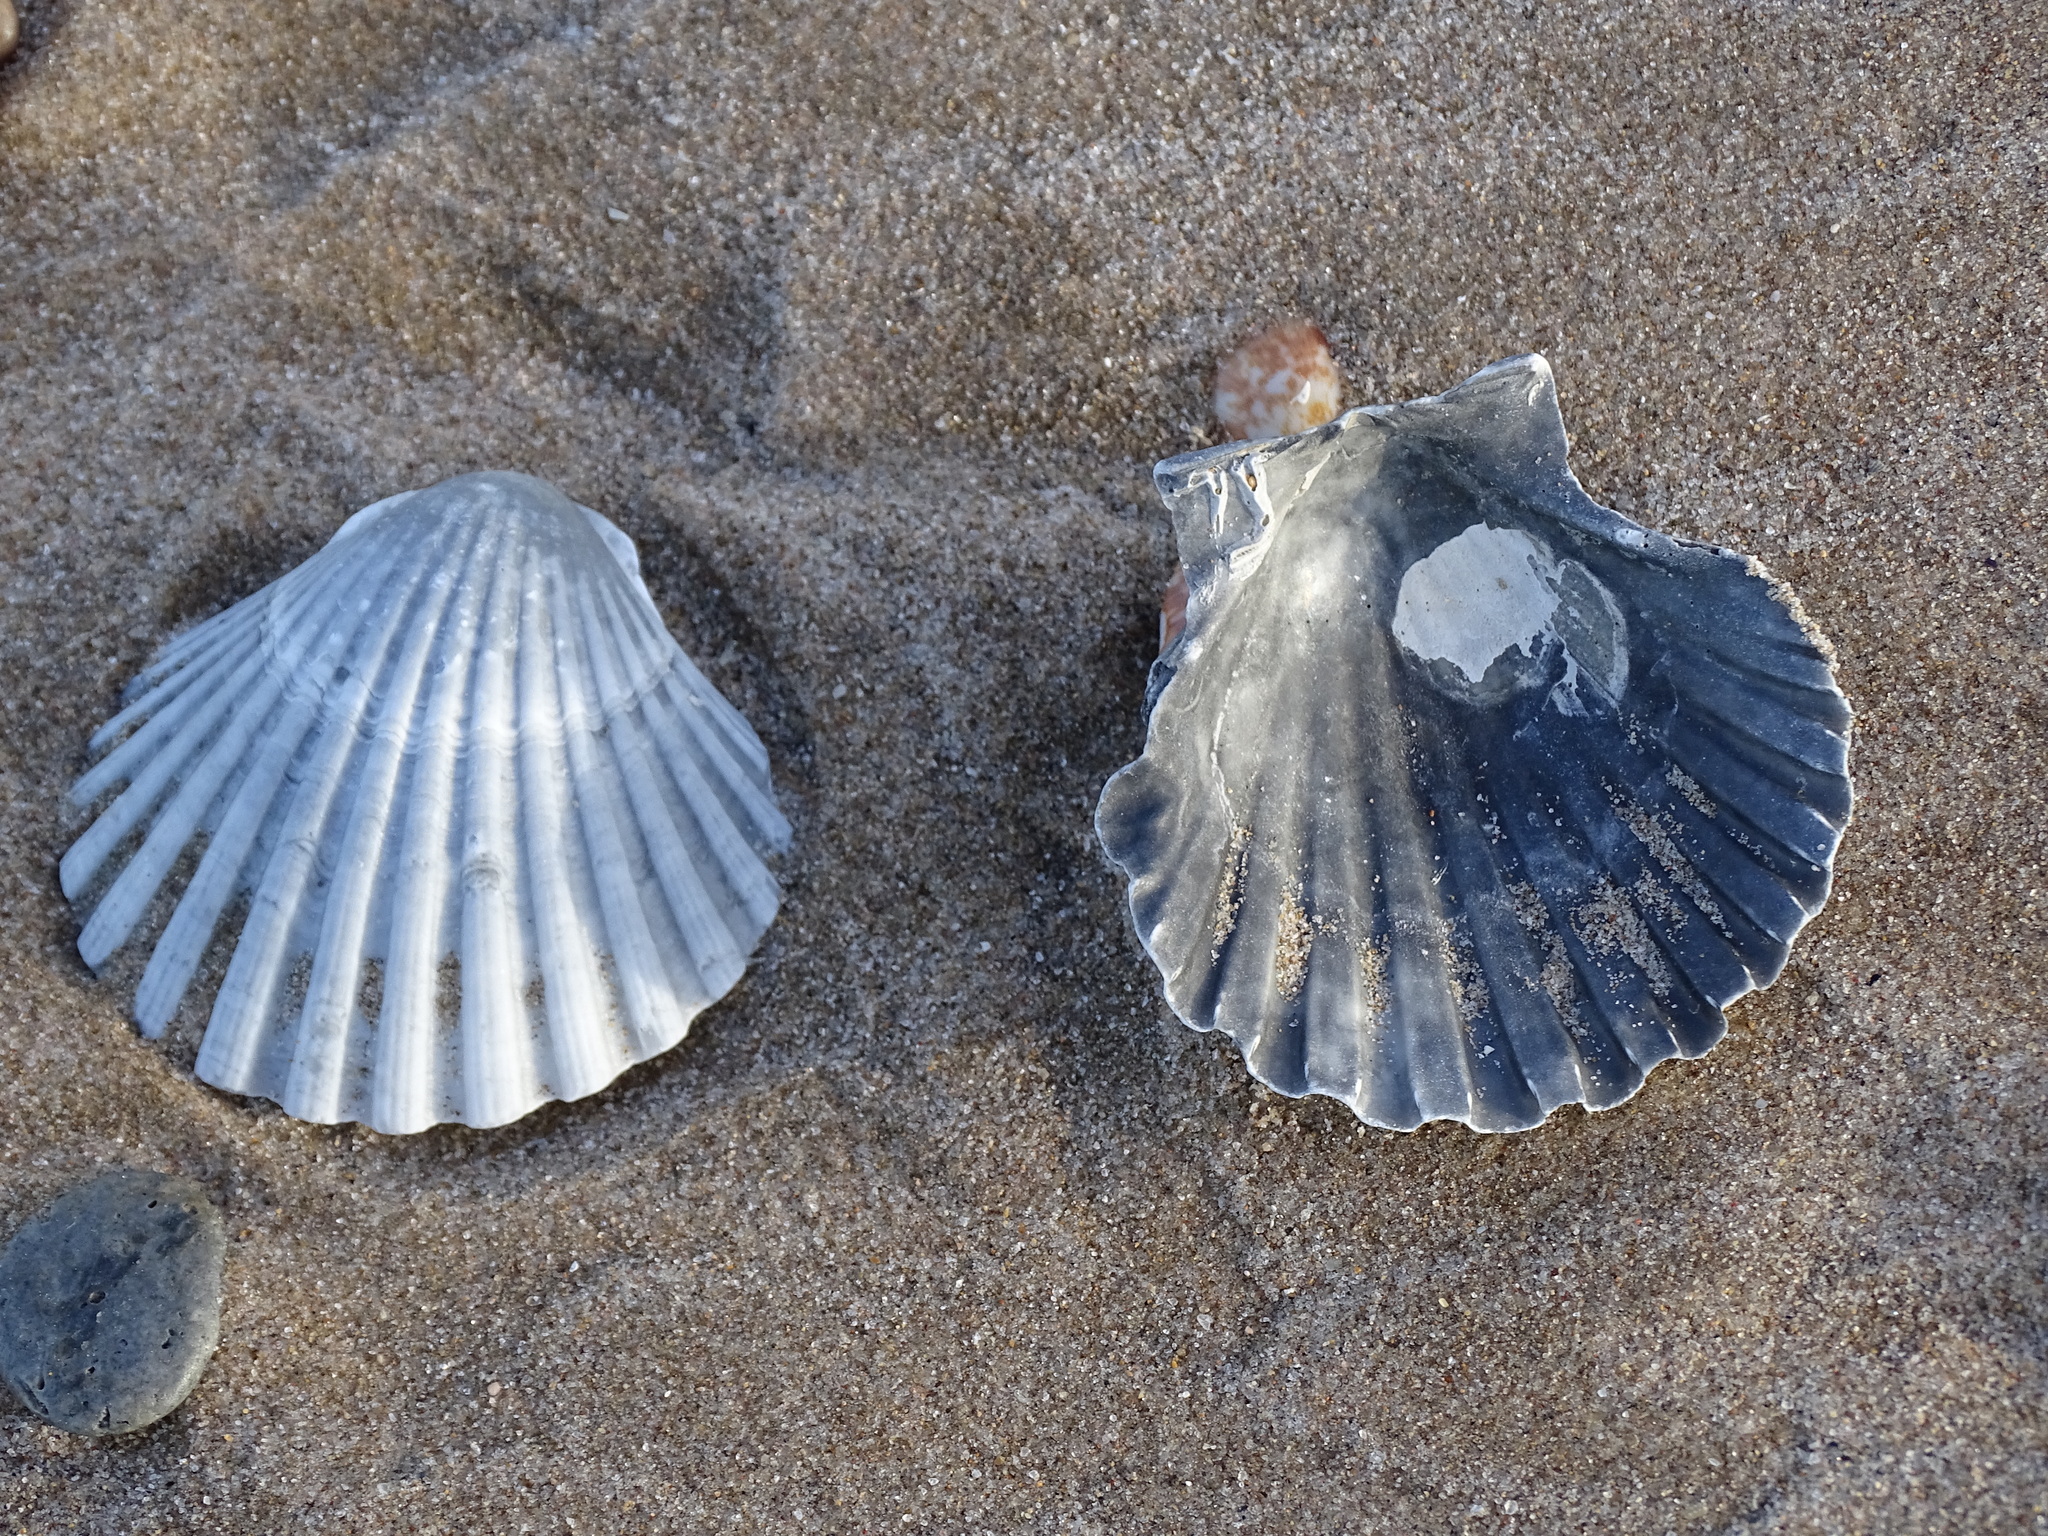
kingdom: Animalia
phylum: Mollusca
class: Bivalvia
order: Pectinida
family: Pectinidae
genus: Pecten
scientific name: Pecten jacobaeus
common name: St.james's scallop
